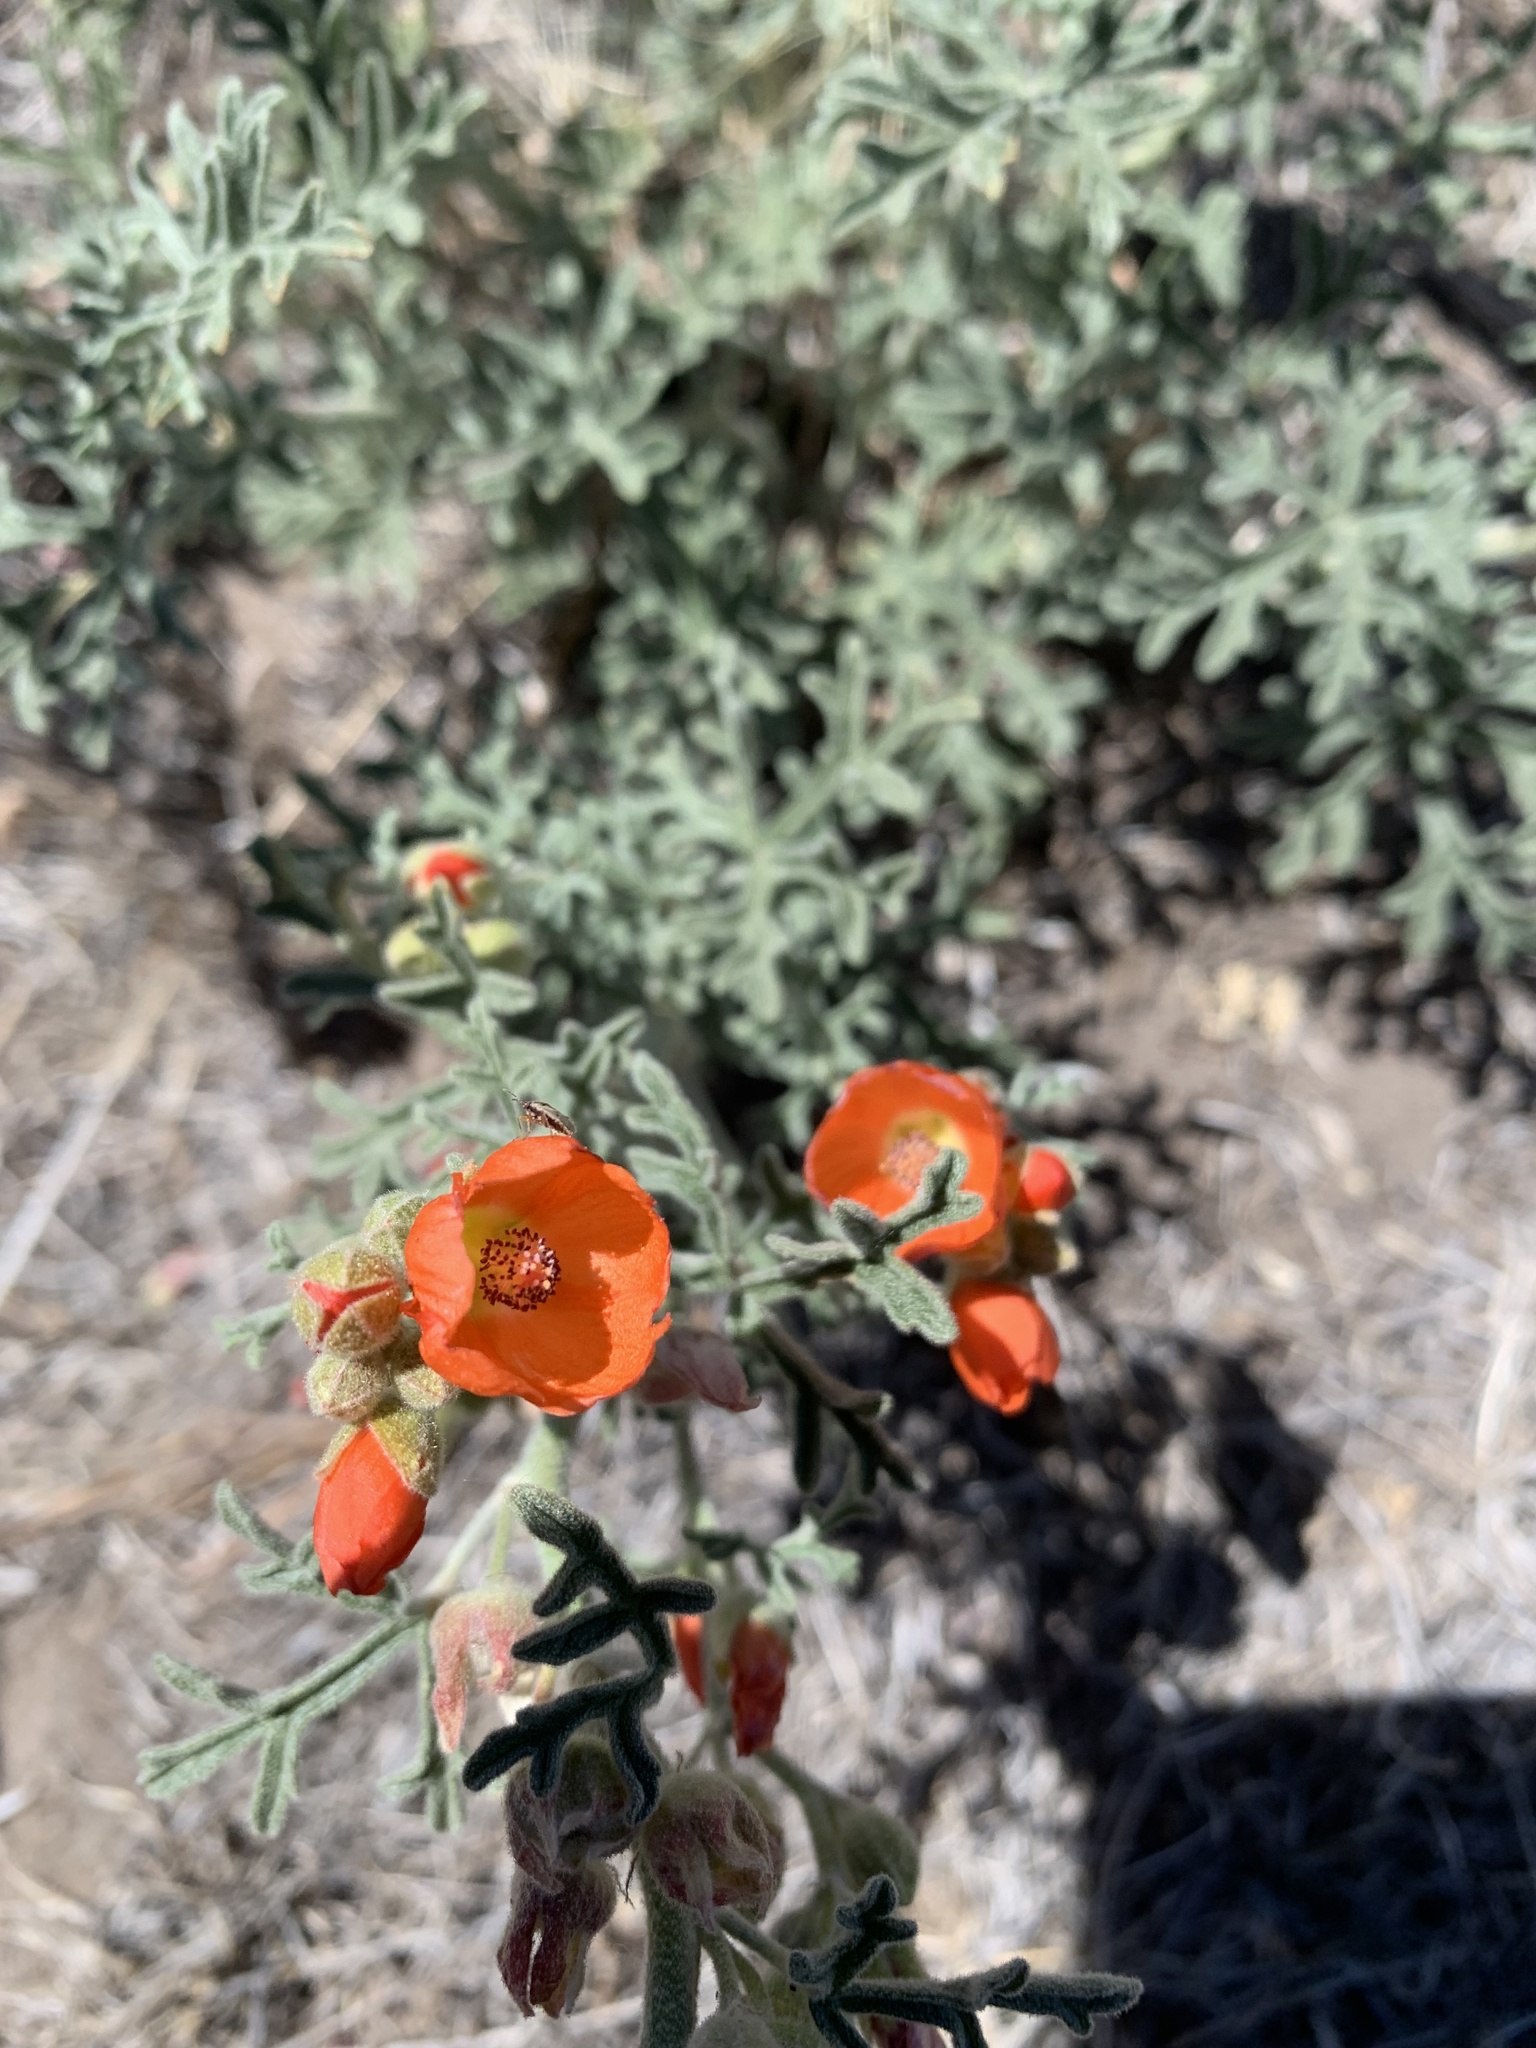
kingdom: Plantae
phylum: Tracheophyta
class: Magnoliopsida
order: Malvales
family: Malvaceae
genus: Sphaeralcea
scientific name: Sphaeralcea grossulariifolia
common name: Current-leaf globe-mallow
